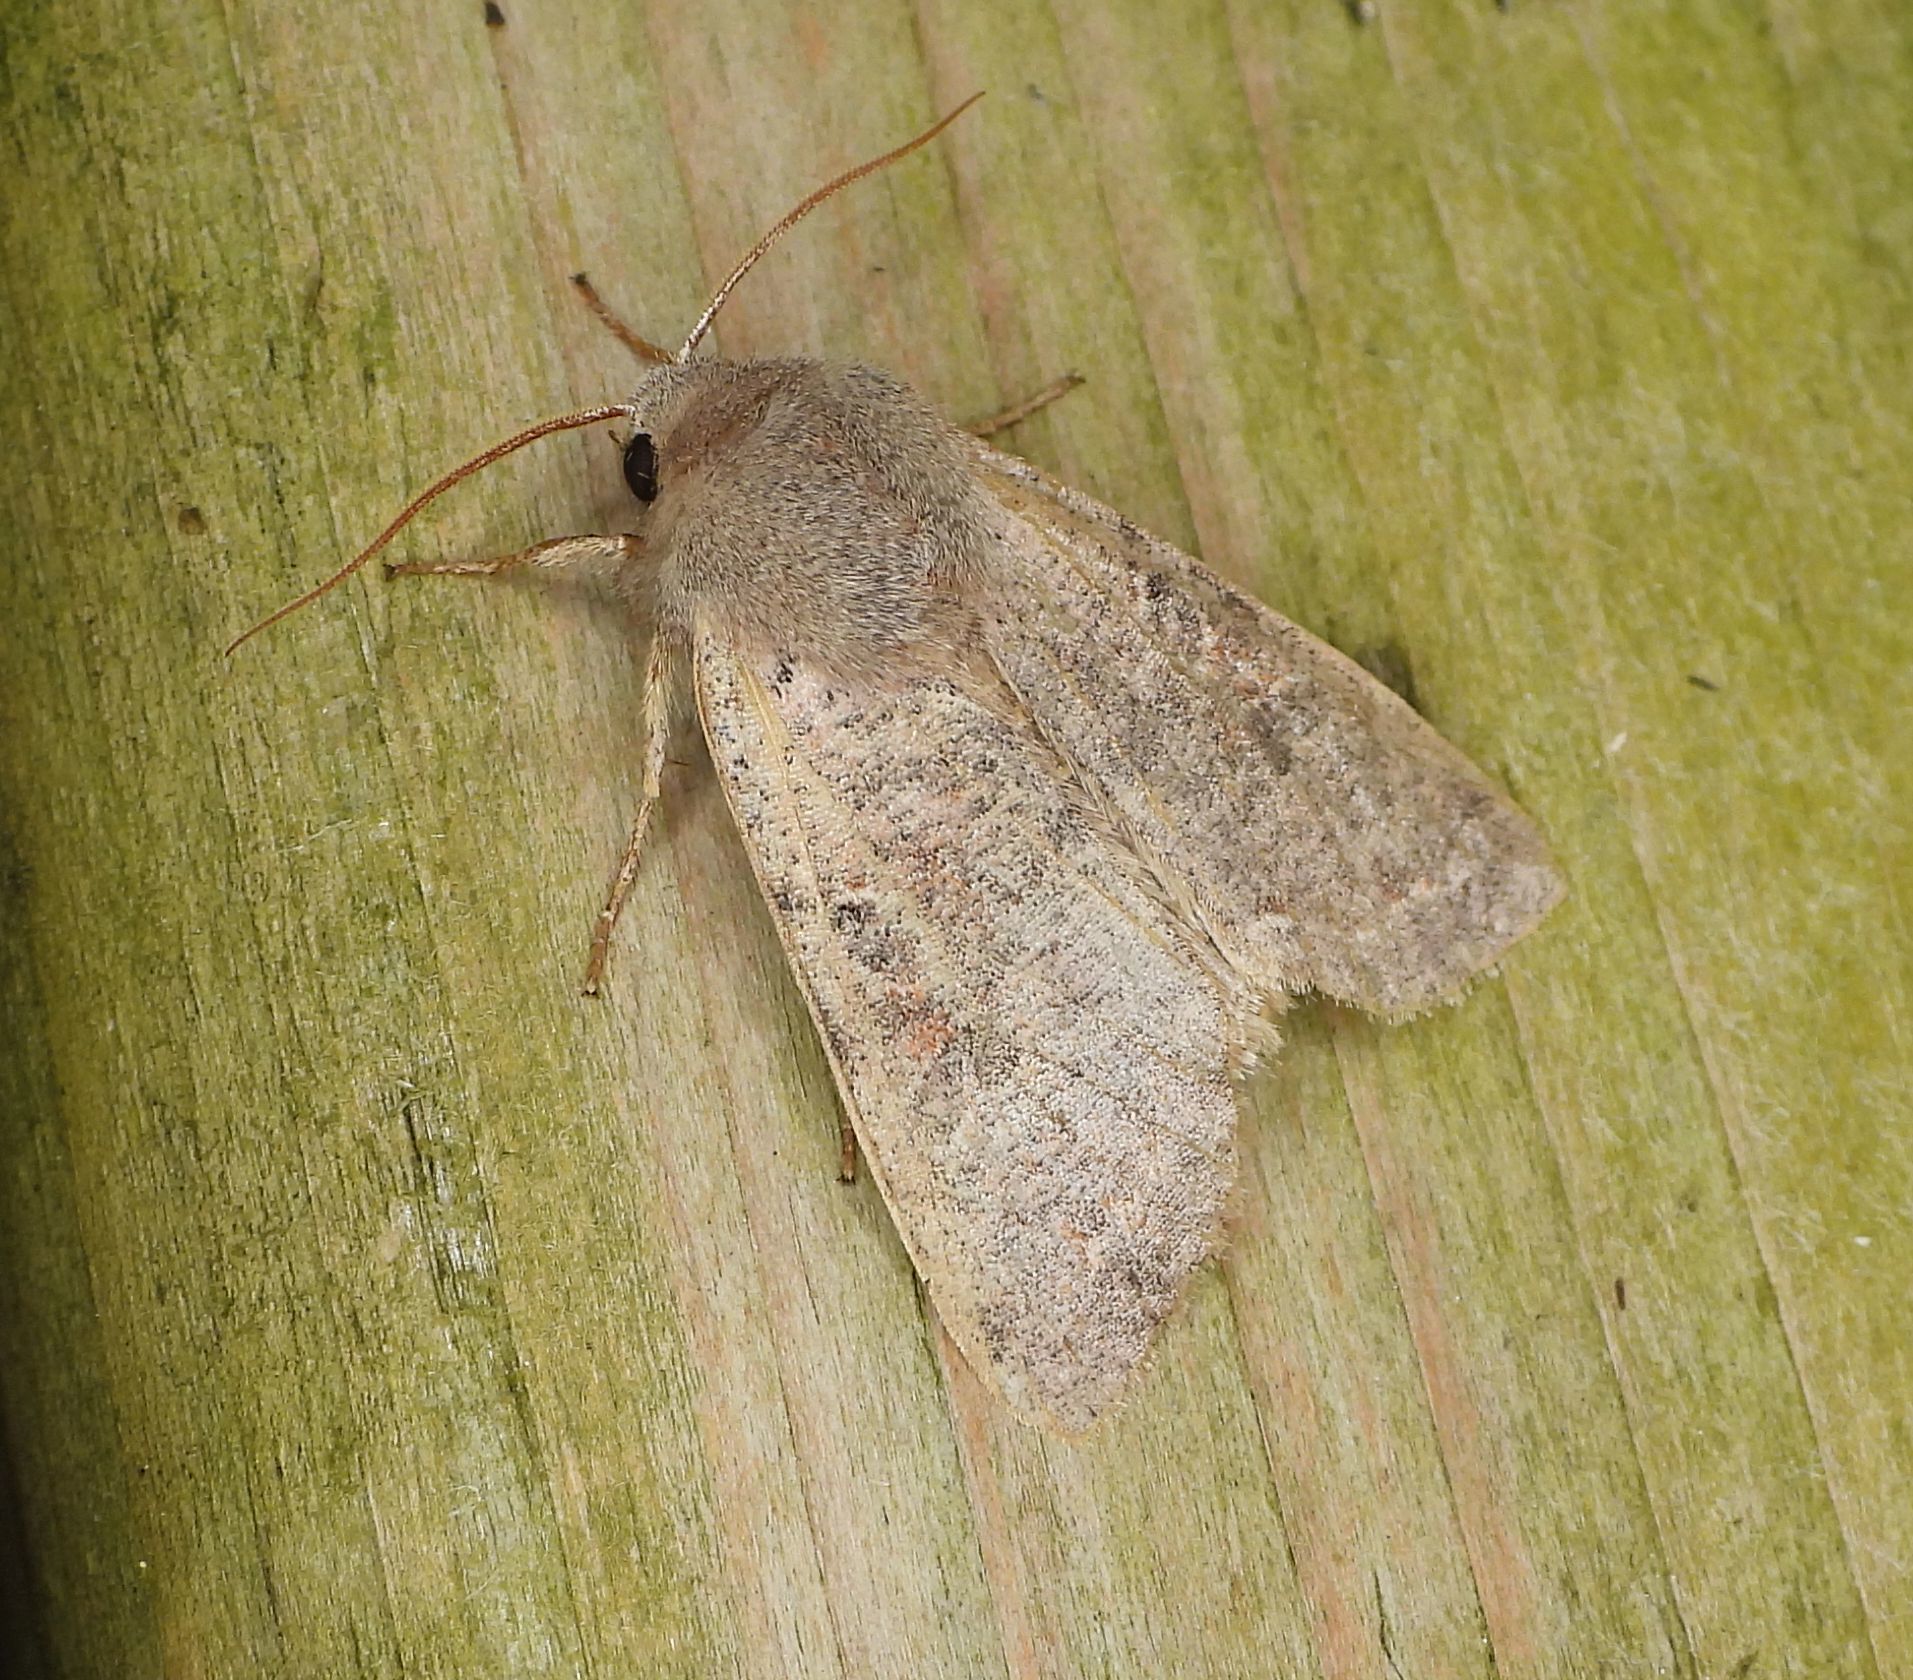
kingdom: Animalia
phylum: Arthropoda
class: Insecta
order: Lepidoptera
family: Noctuidae
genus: Orthosia
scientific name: Orthosia hibisci
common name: Green fruitworm
